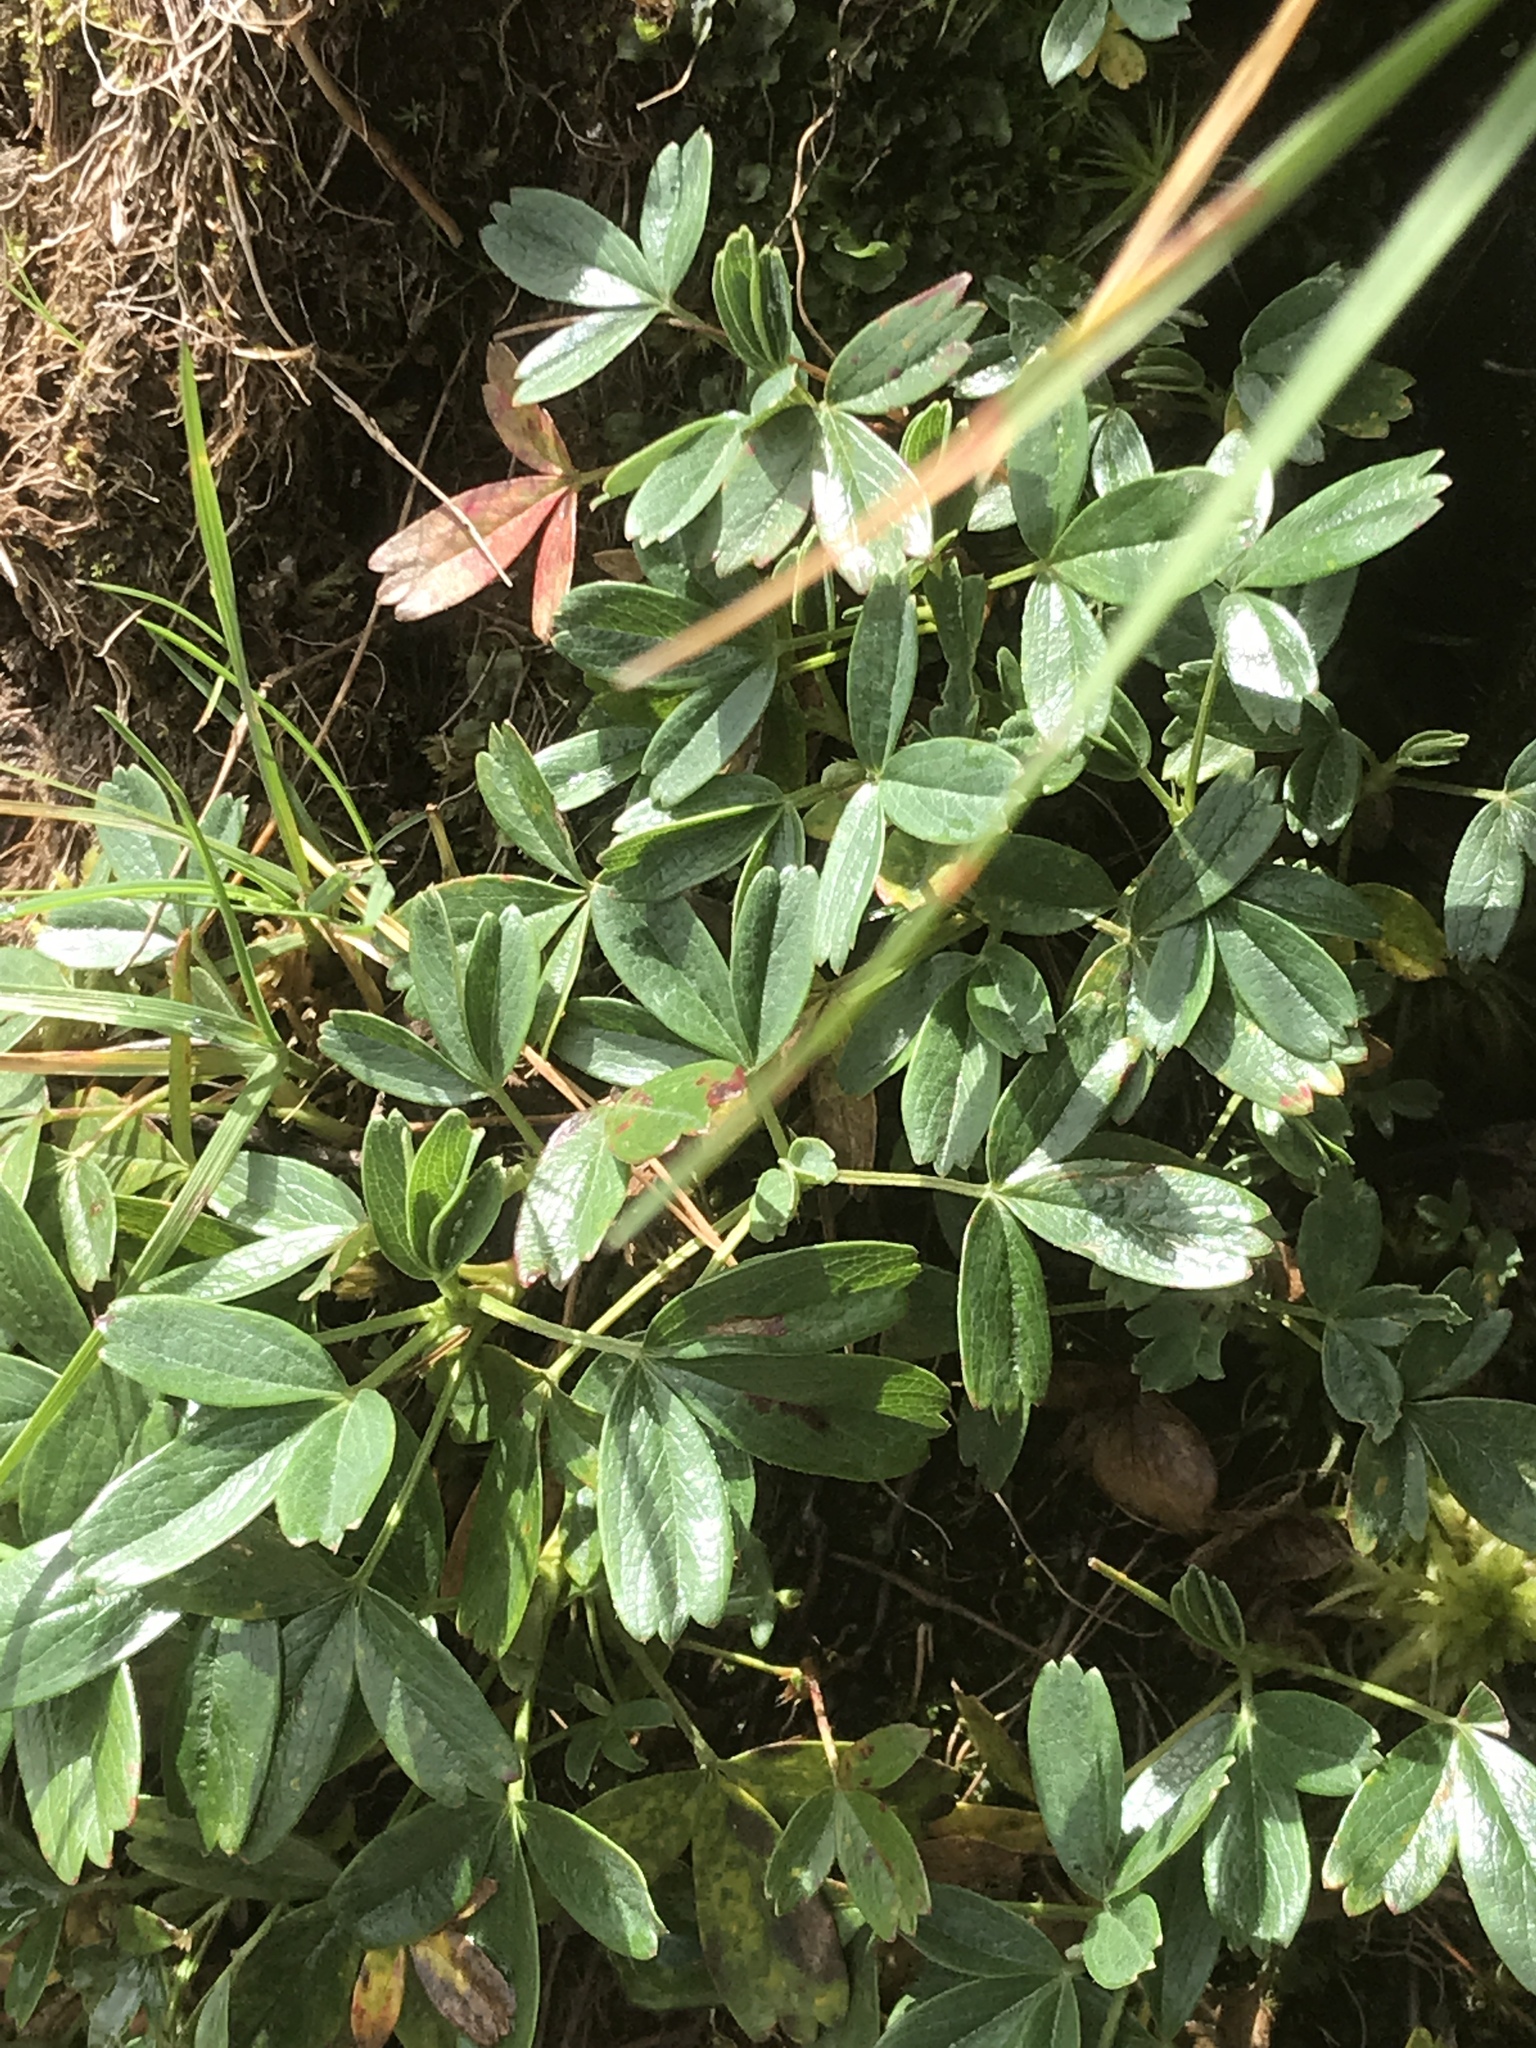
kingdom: Plantae
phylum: Tracheophyta
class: Magnoliopsida
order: Rosales
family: Rosaceae
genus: Sibbaldia
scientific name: Sibbaldia tridentata
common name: Three-toothed cinquefoil
